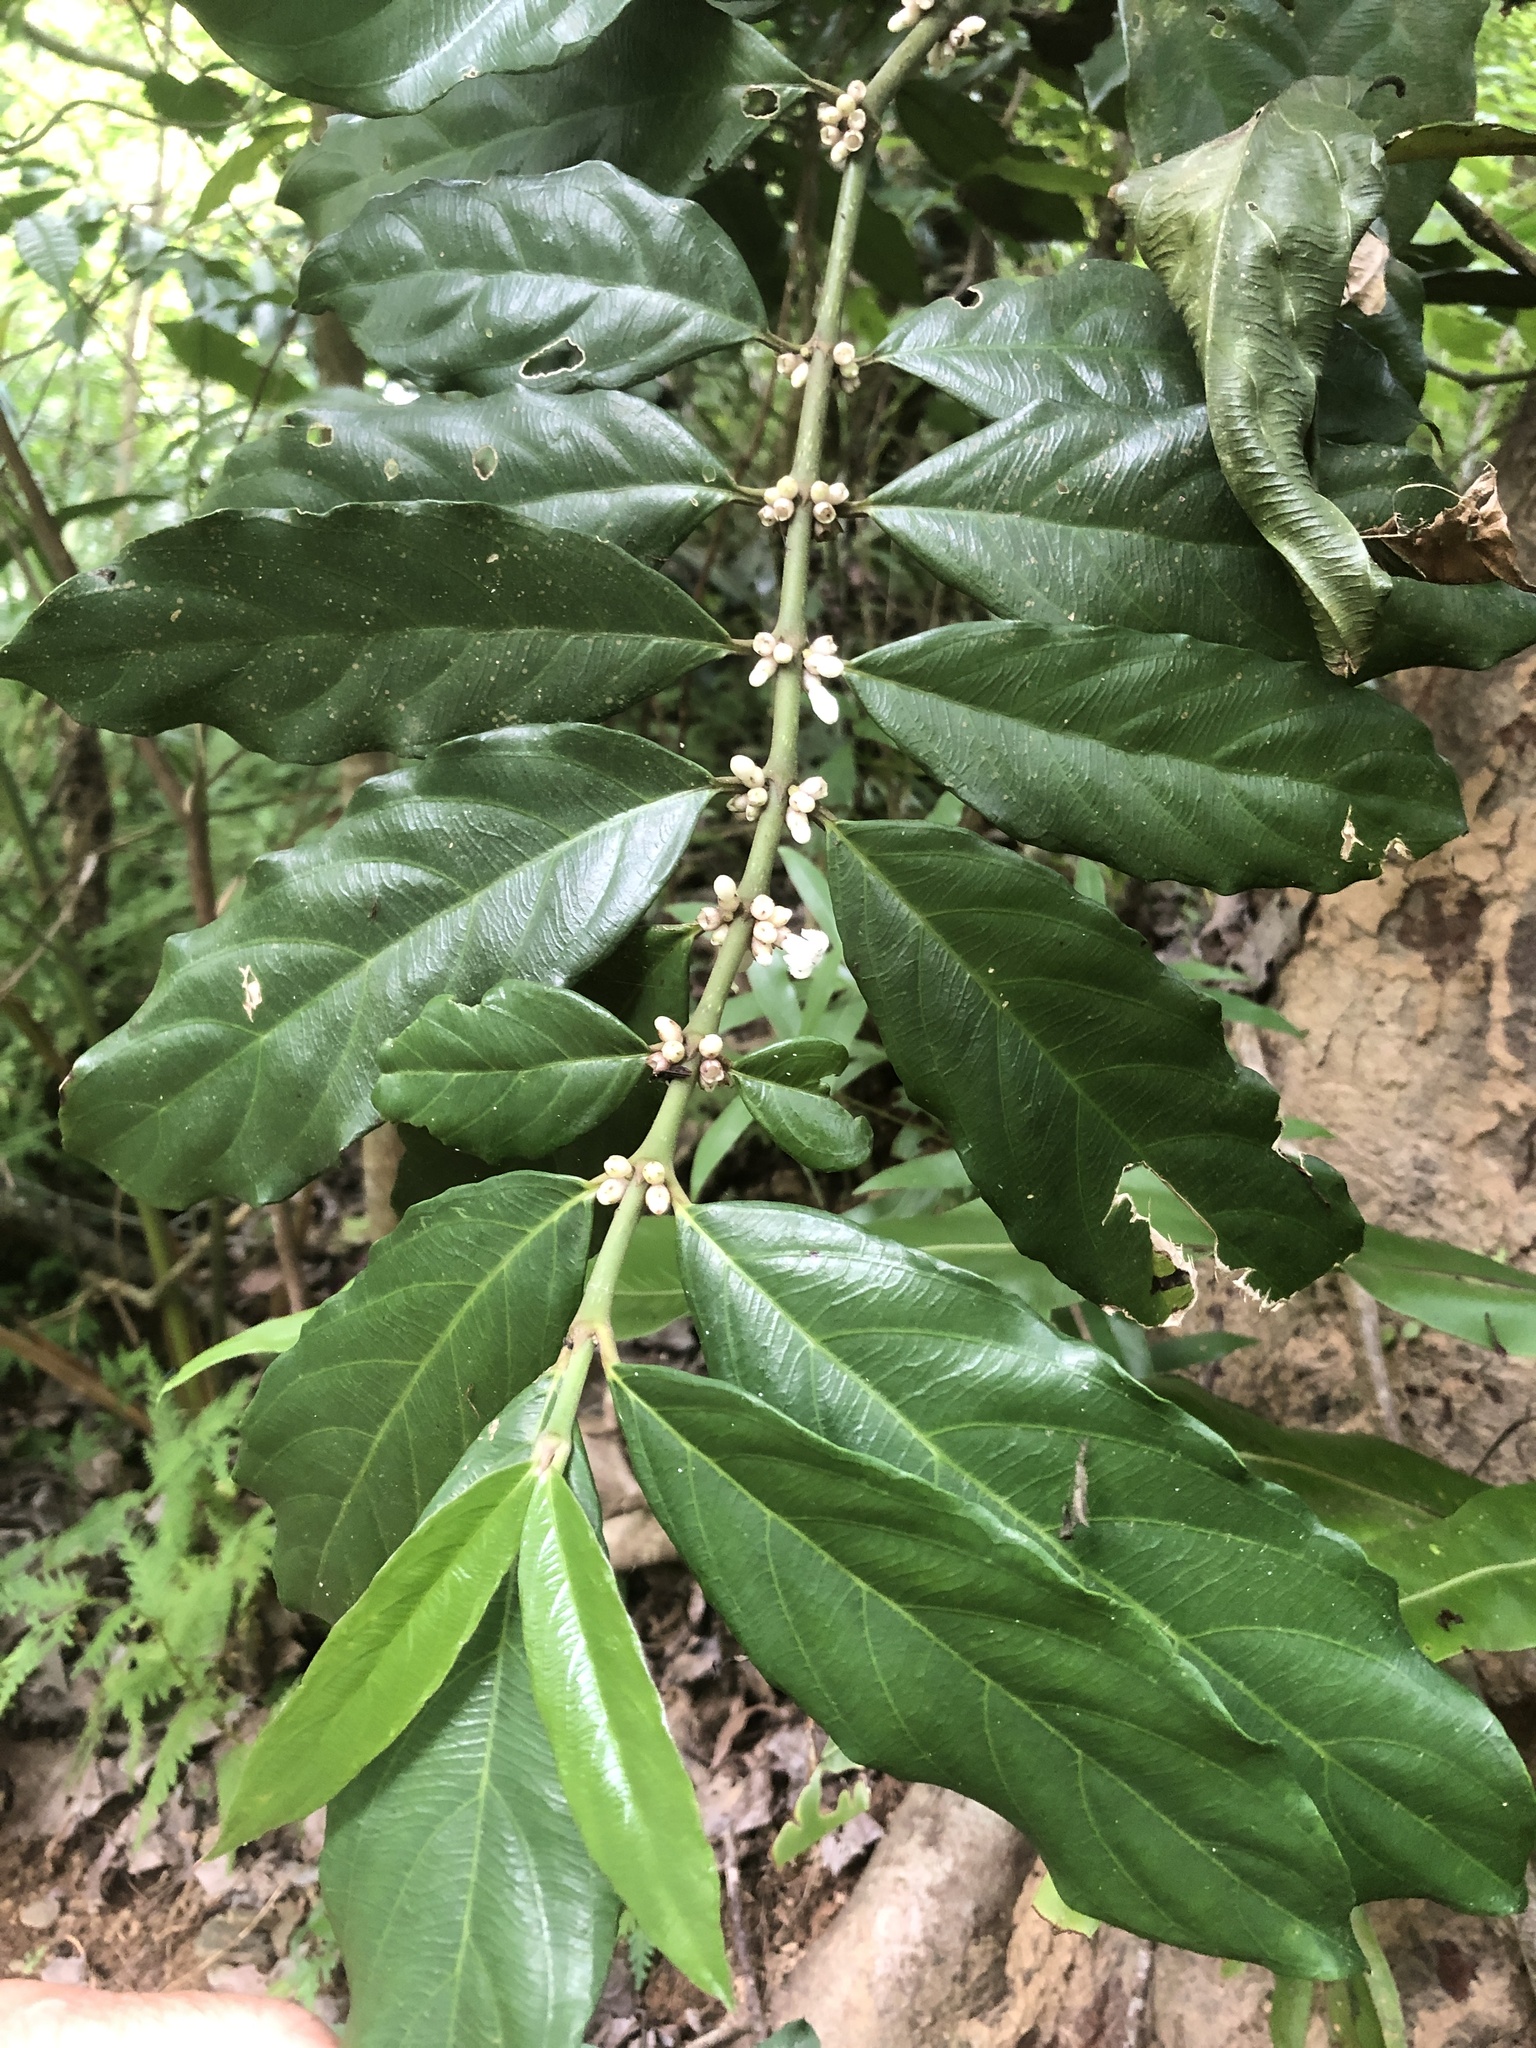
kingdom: Plantae
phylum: Tracheophyta
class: Magnoliopsida
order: Gentianales
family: Rubiaceae
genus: Lasianthus
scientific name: Lasianthus verticillatus
